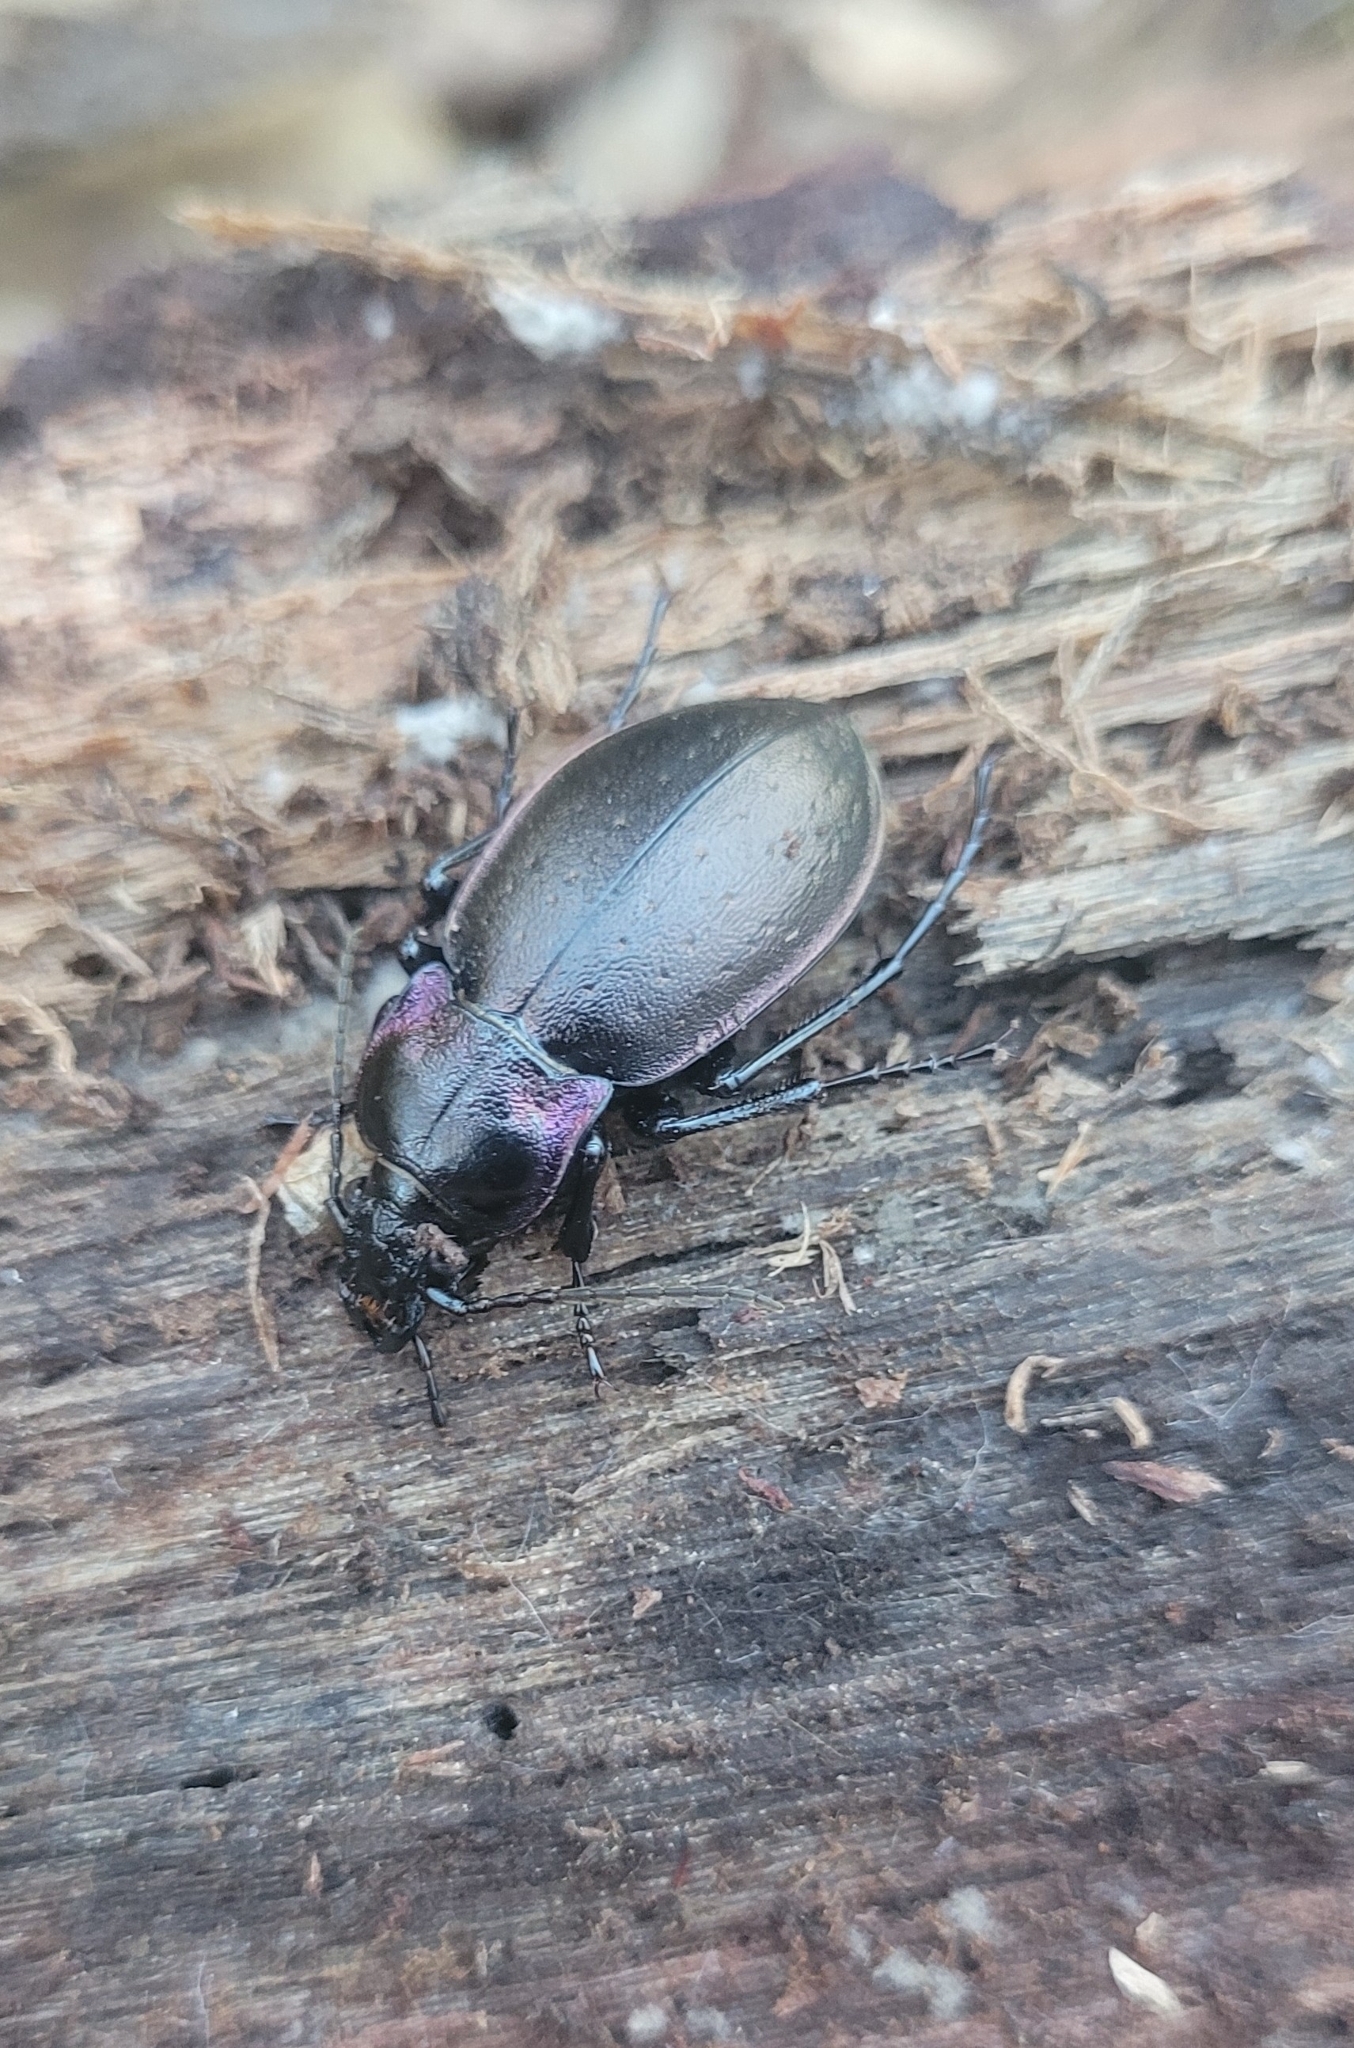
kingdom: Animalia
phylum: Arthropoda
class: Insecta
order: Coleoptera
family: Carabidae
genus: Carabus
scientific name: Carabus nemoralis
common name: European ground beetle
